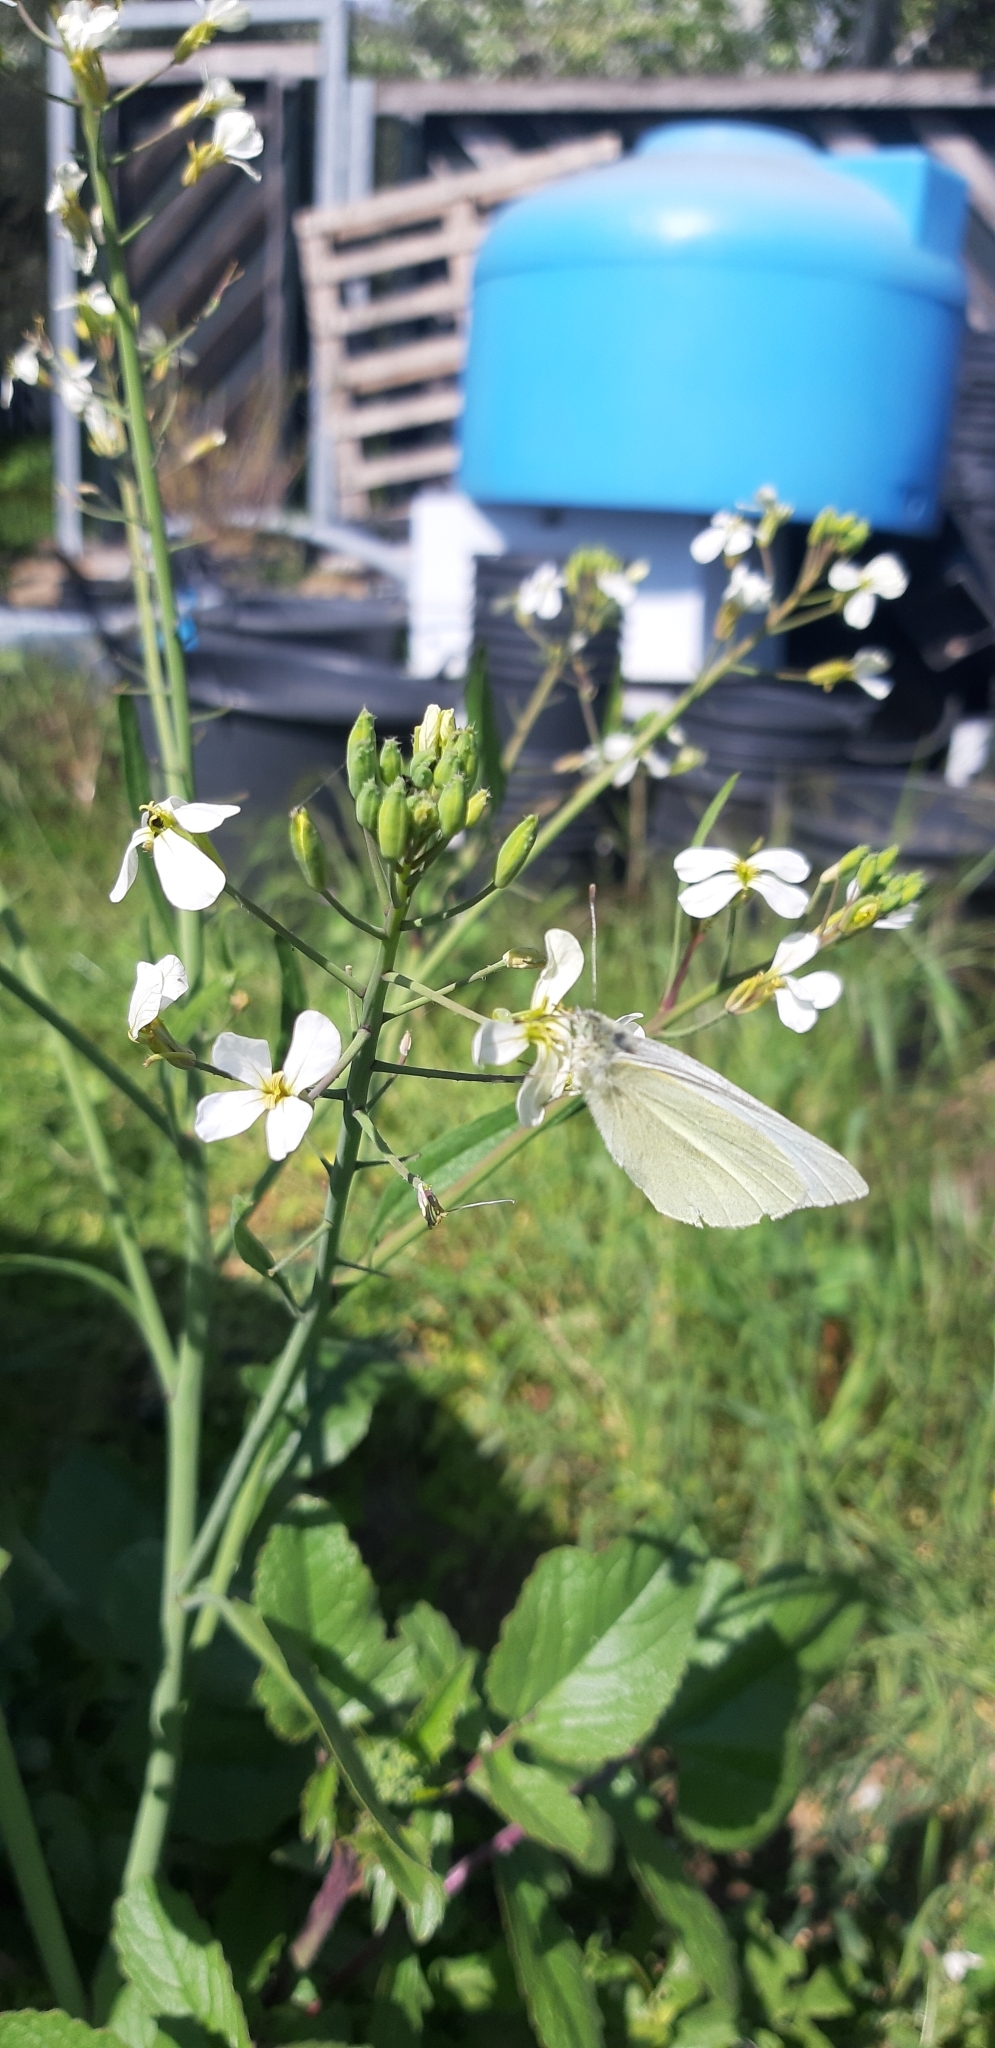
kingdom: Animalia
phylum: Arthropoda
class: Insecta
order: Lepidoptera
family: Pieridae
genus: Pieris
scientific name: Pieris rapae
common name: Small white
